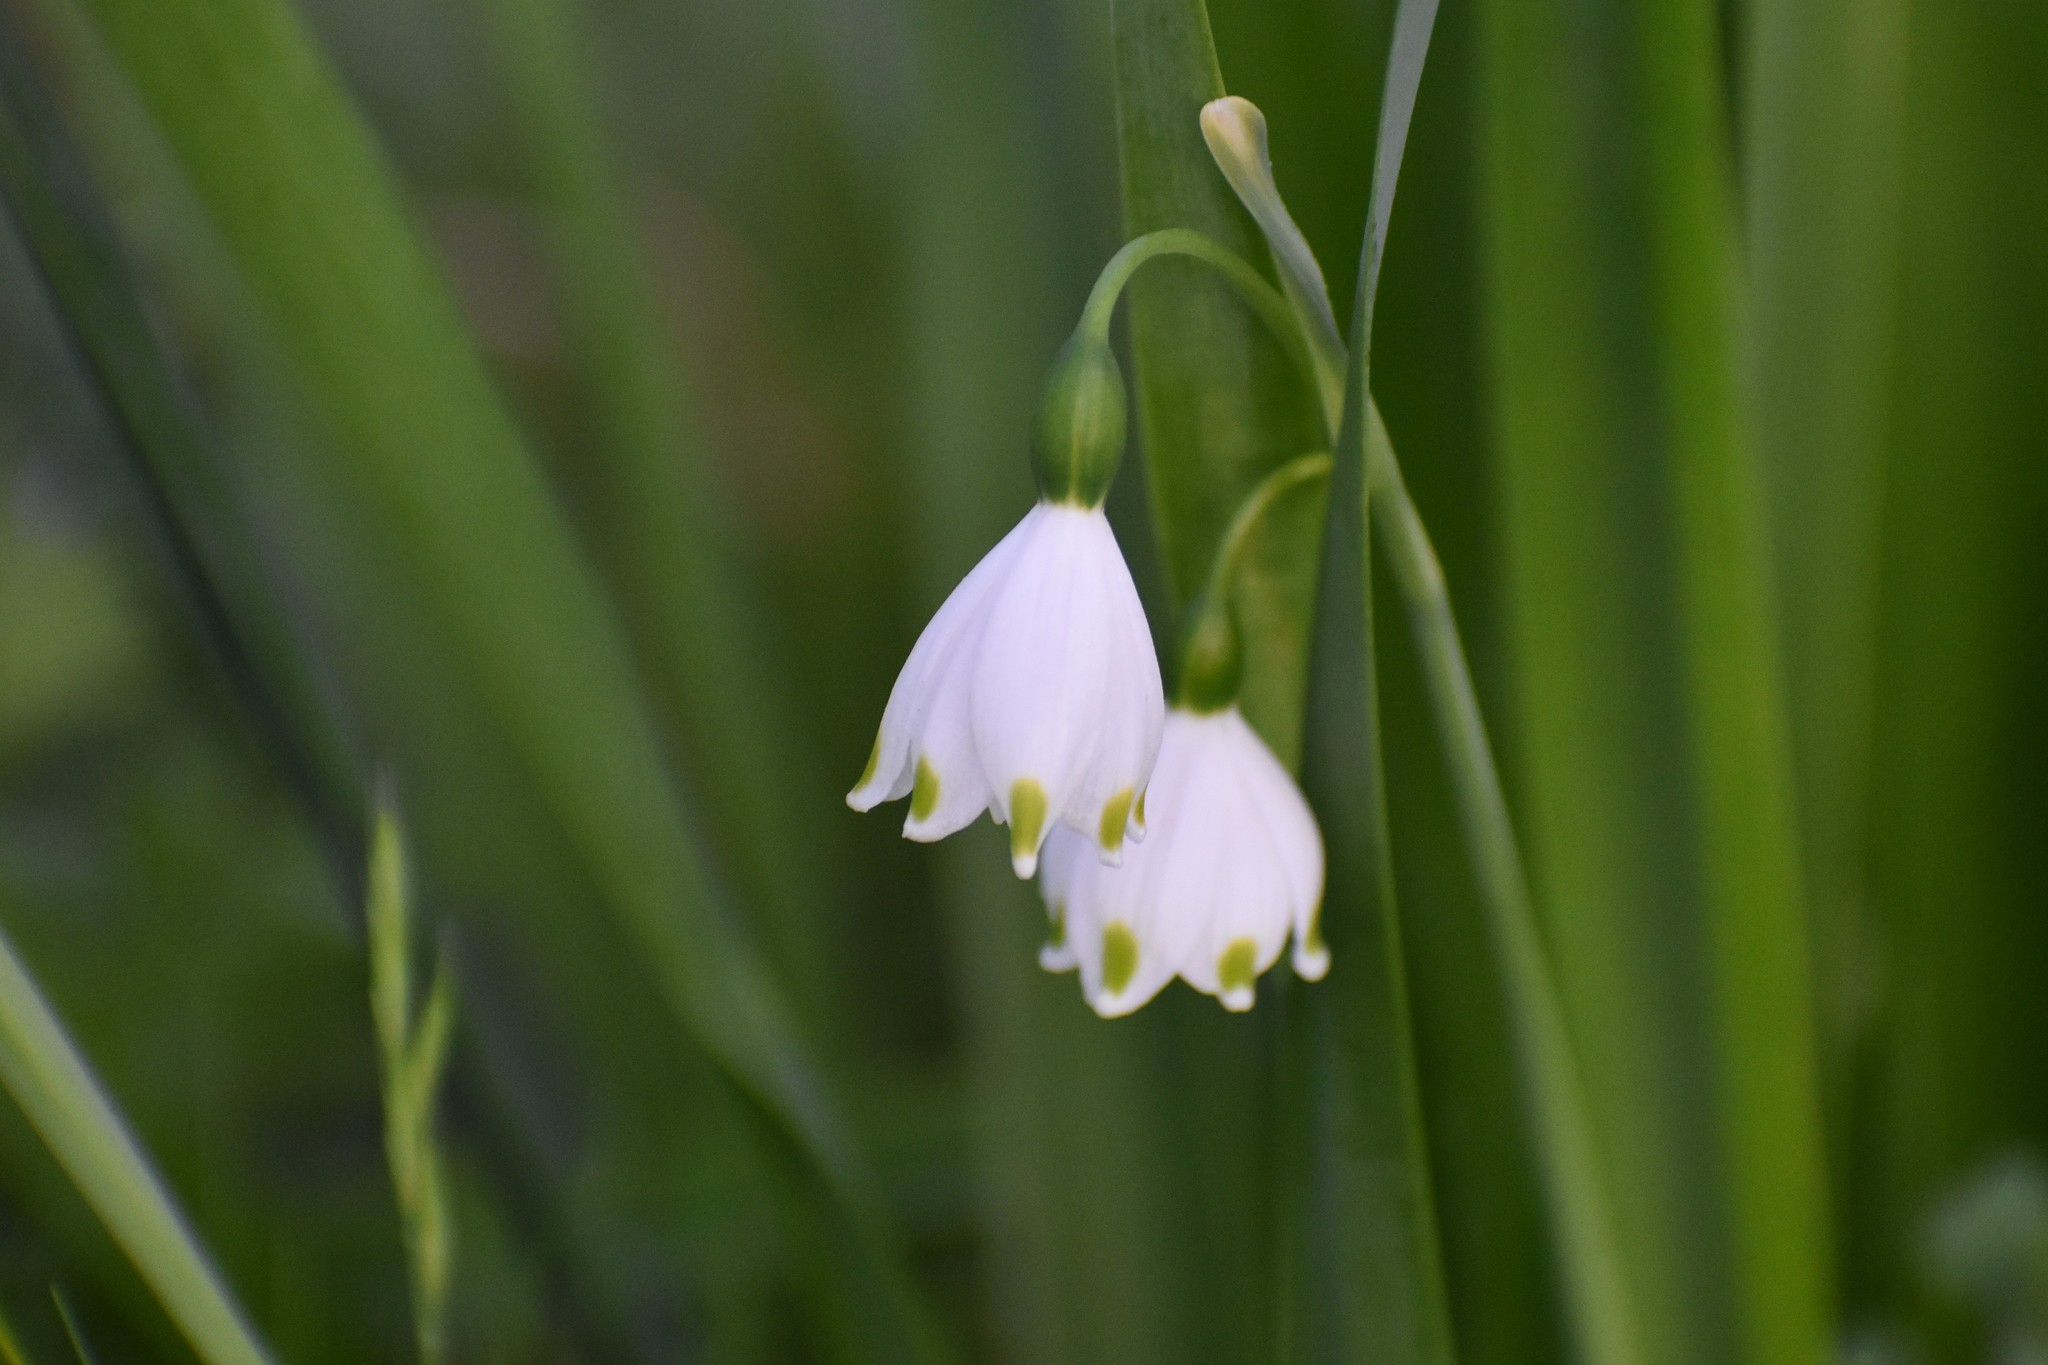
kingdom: Plantae
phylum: Tracheophyta
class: Liliopsida
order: Asparagales
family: Amaryllidaceae
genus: Leucojum
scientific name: Leucojum aestivum
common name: Summer snowflake
